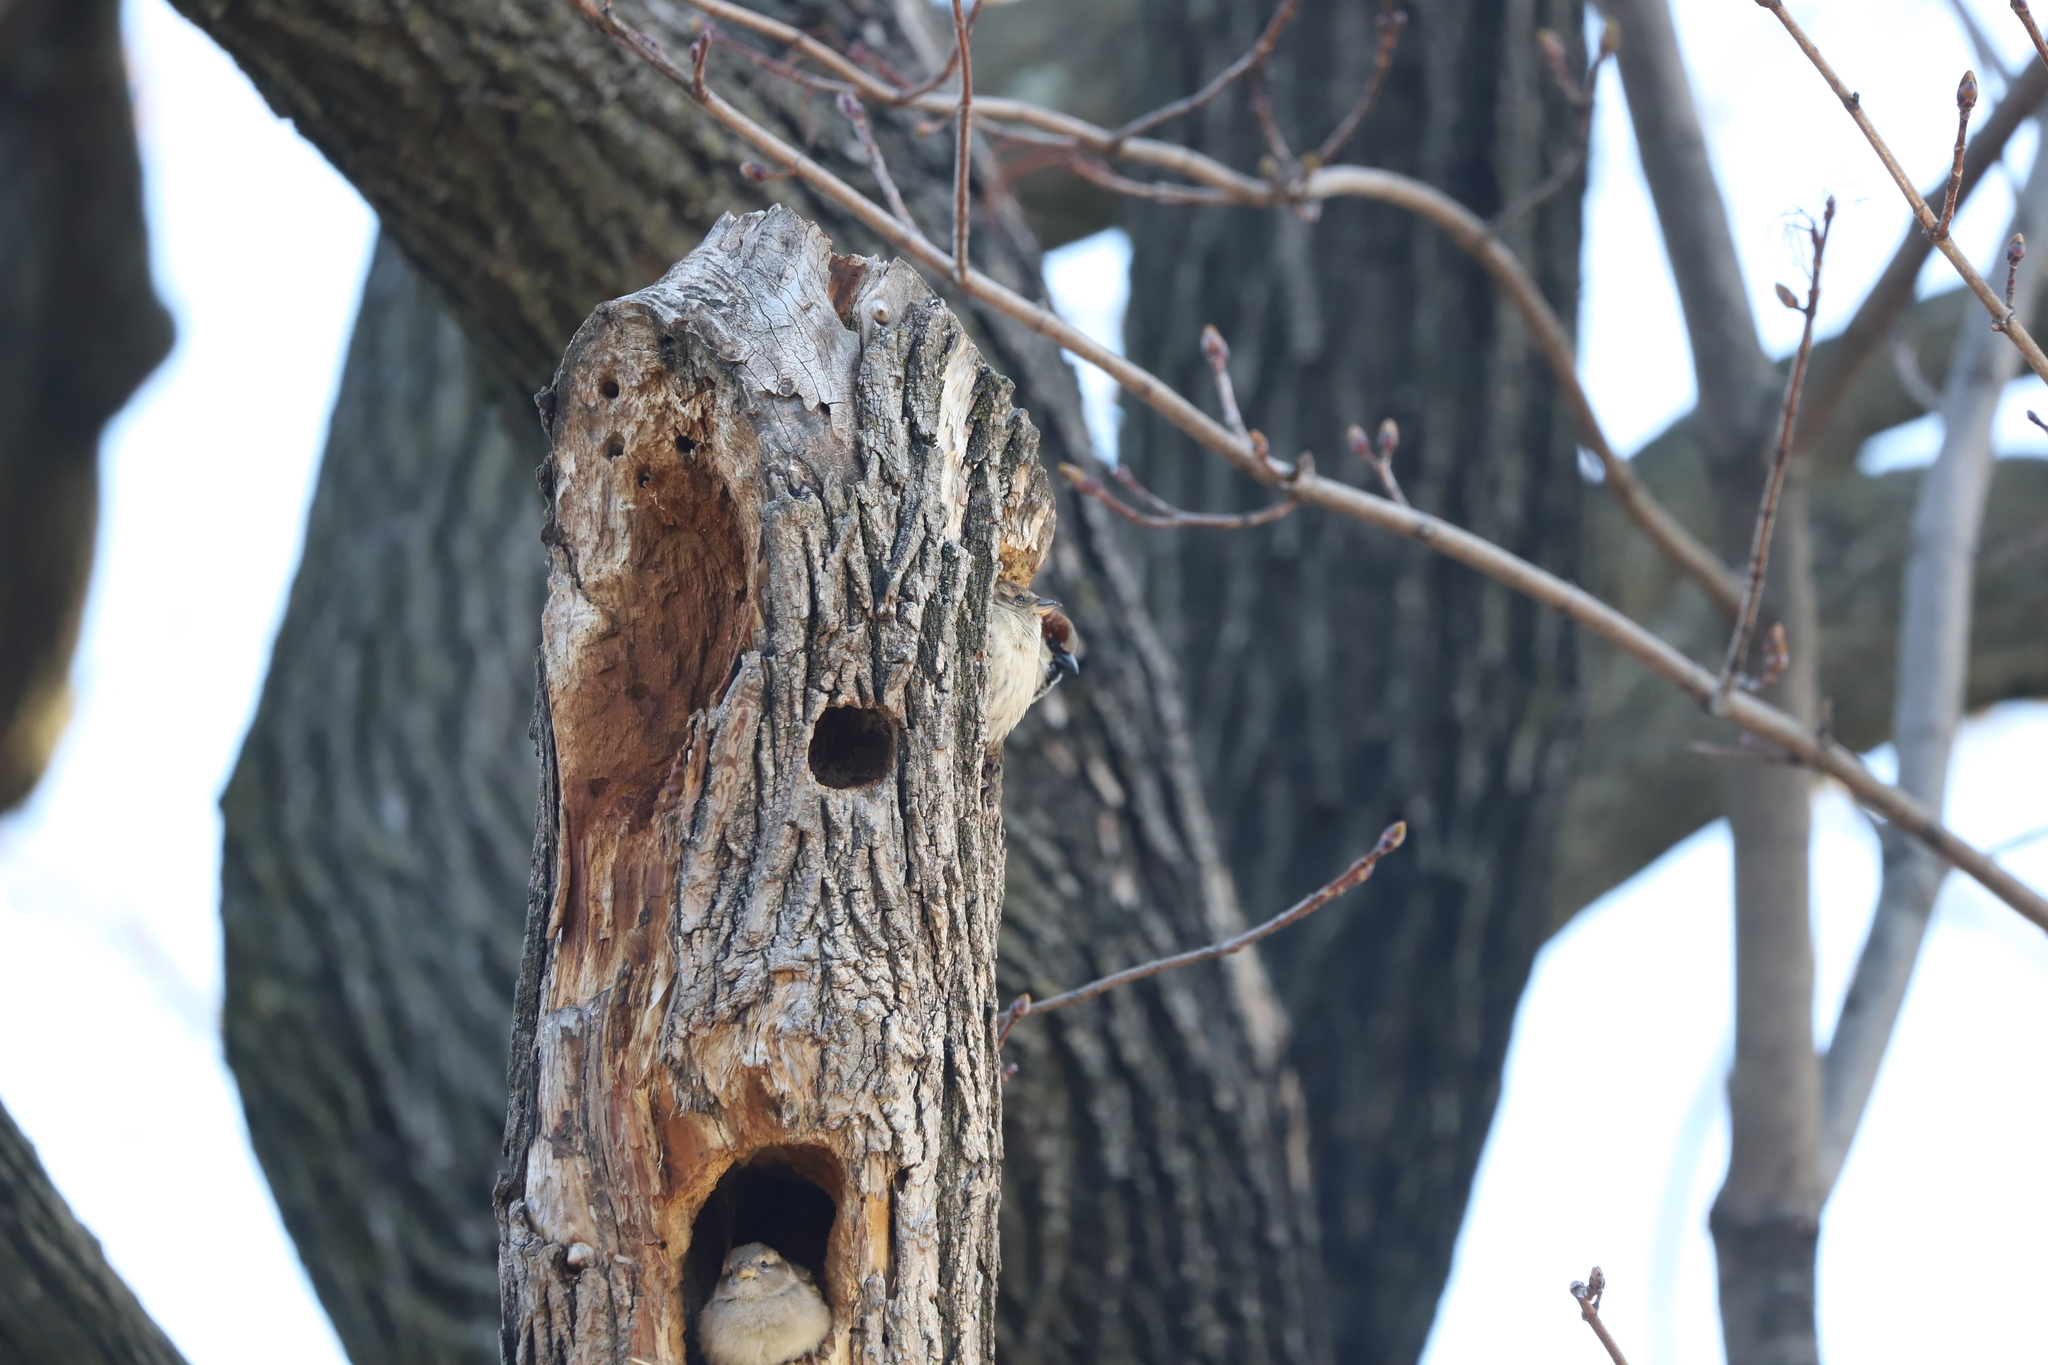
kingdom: Animalia
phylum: Chordata
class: Aves
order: Passeriformes
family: Passeridae
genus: Passer
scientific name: Passer domesticus
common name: House sparrow
